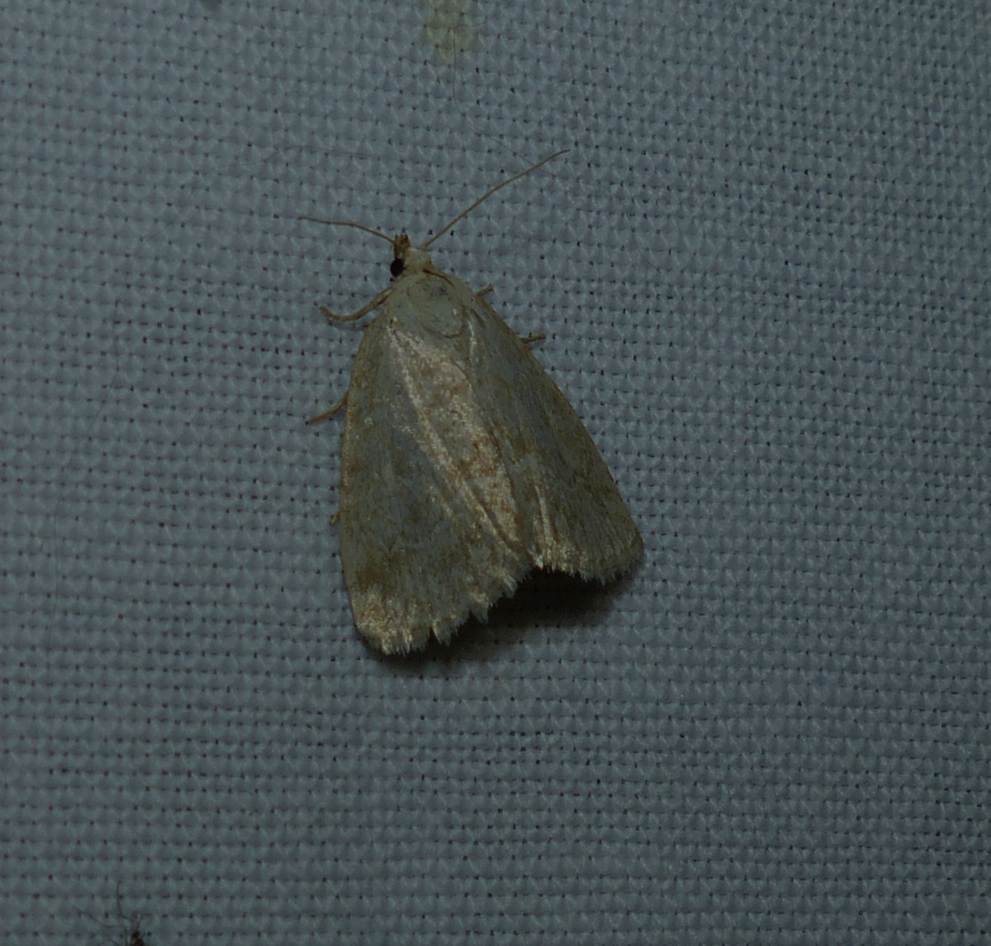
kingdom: Animalia
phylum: Arthropoda
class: Insecta
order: Lepidoptera
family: Noctuidae
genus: Protodeltote
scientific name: Protodeltote albidula
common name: Pale glyph
